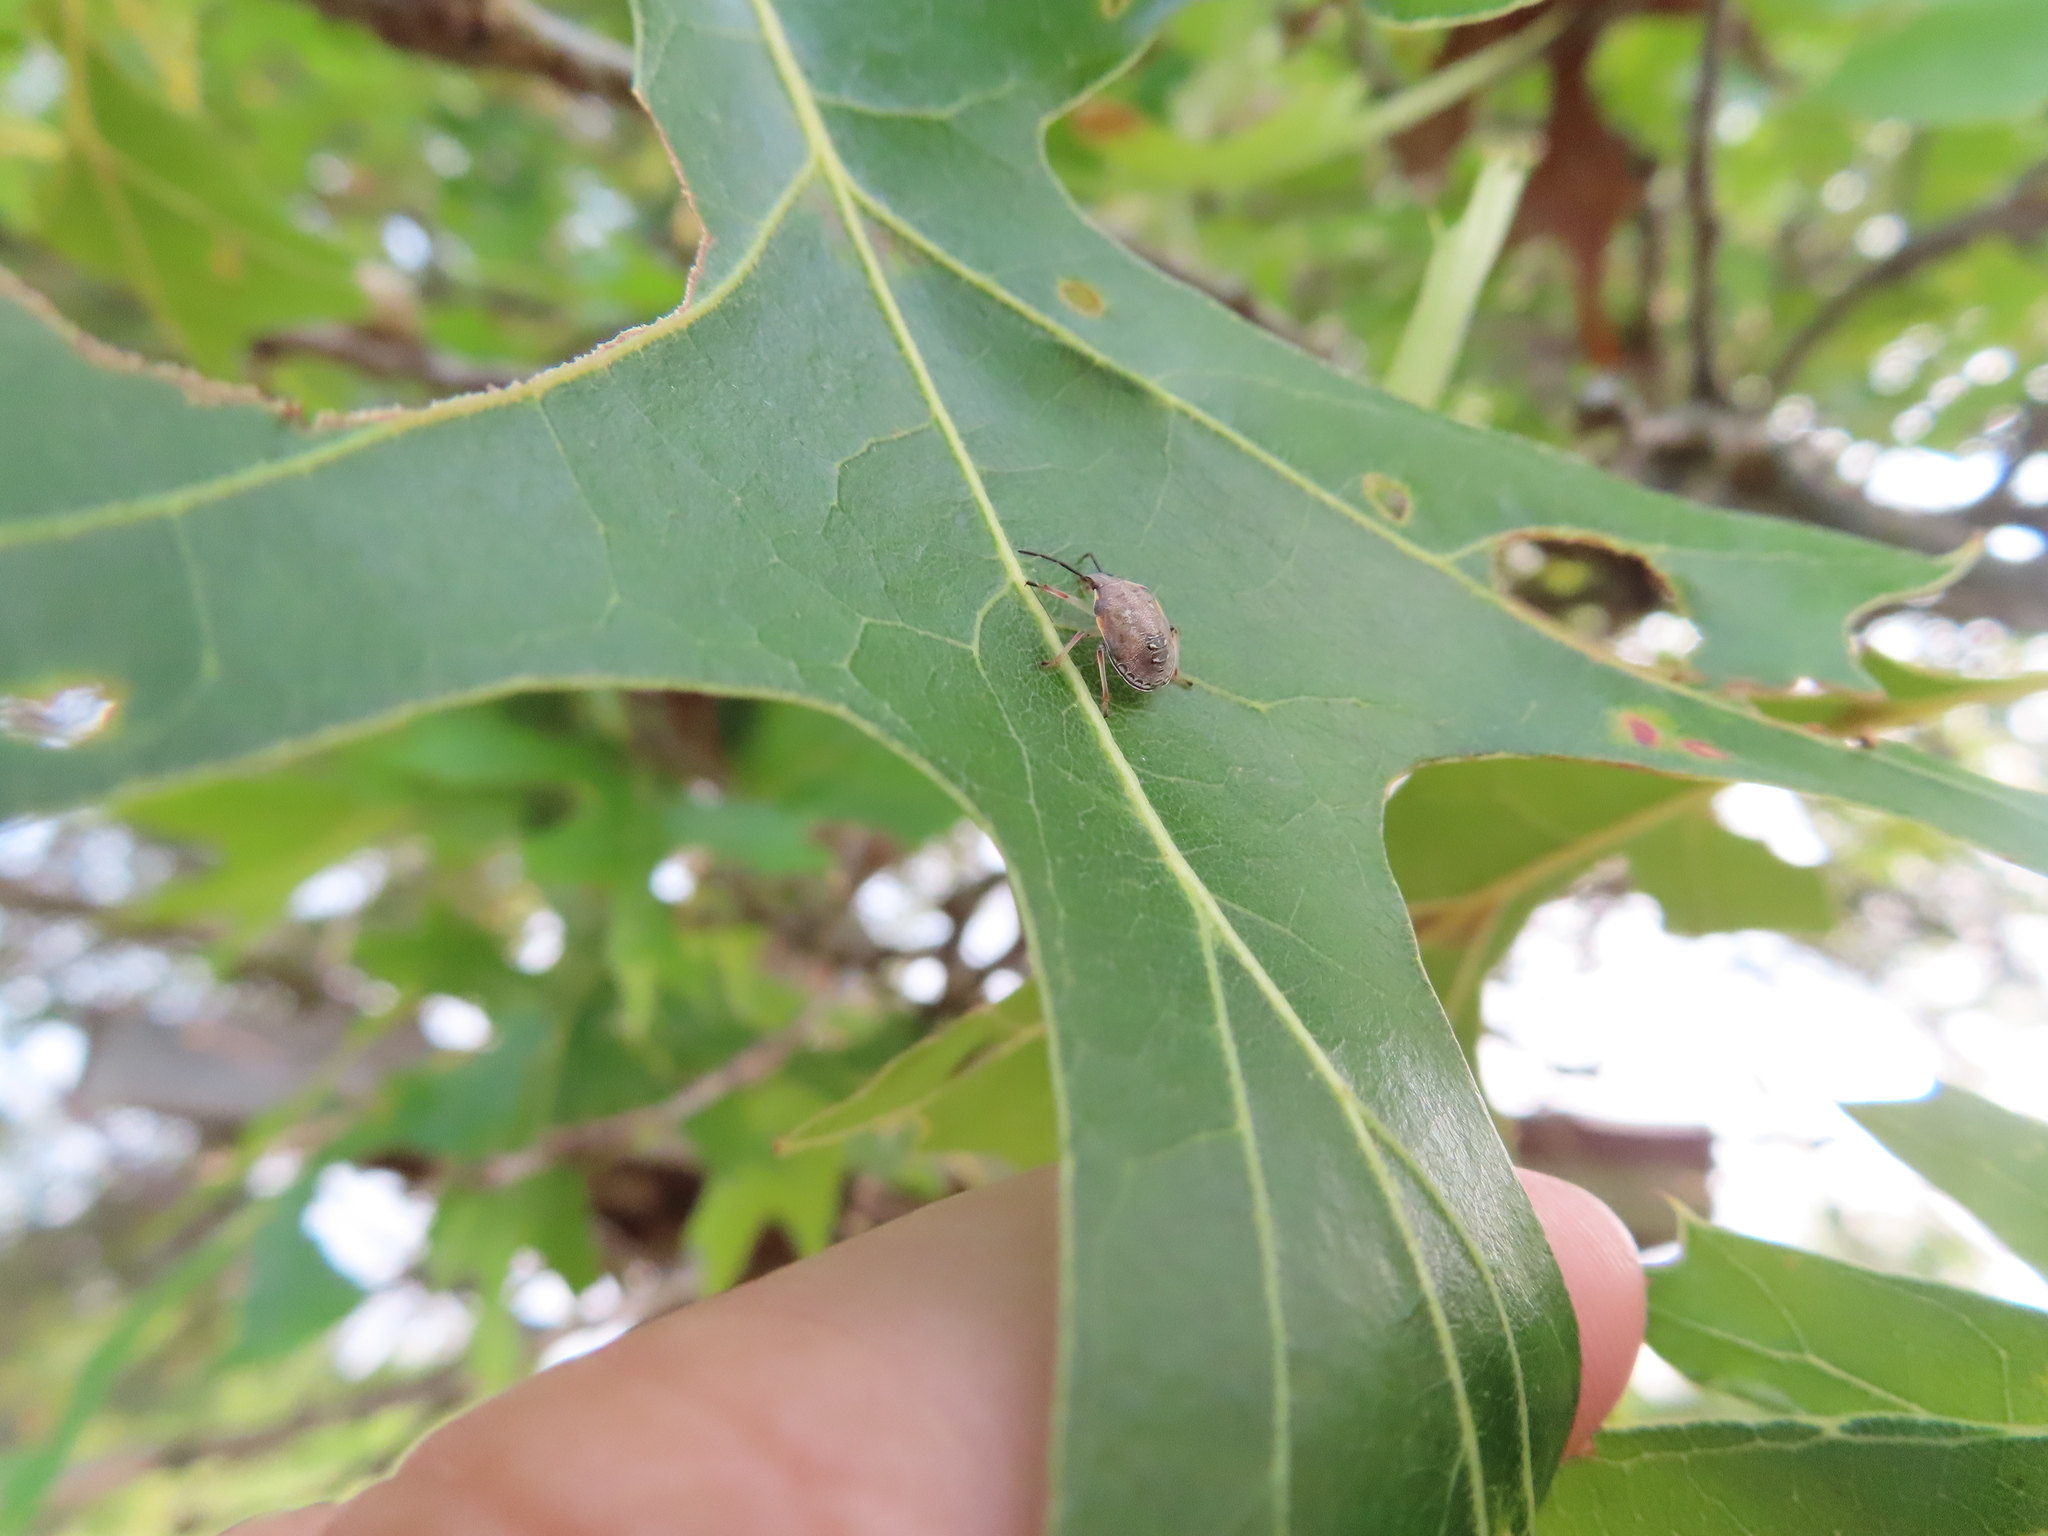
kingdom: Animalia
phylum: Arthropoda
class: Insecta
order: Hemiptera
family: Pentatomidae
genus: Dendrocoris
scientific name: Dendrocoris humeralis
